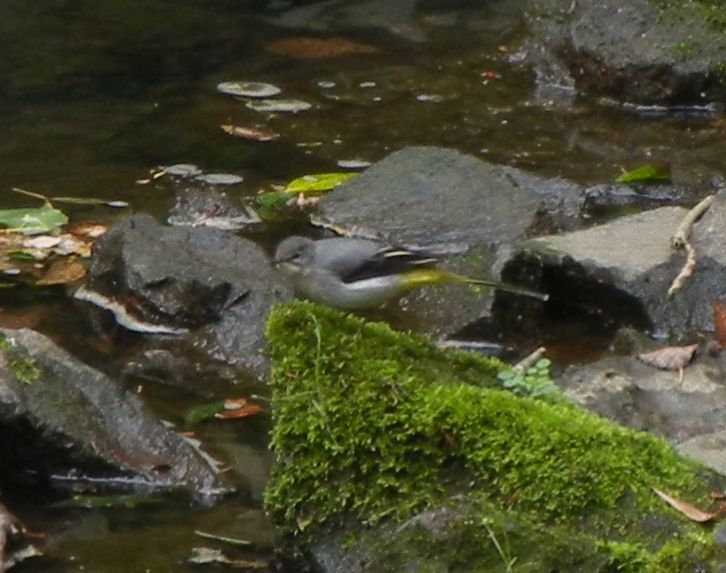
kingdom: Animalia
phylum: Chordata
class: Aves
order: Passeriformes
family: Motacillidae
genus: Motacilla
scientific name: Motacilla cinerea
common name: Grey wagtail
